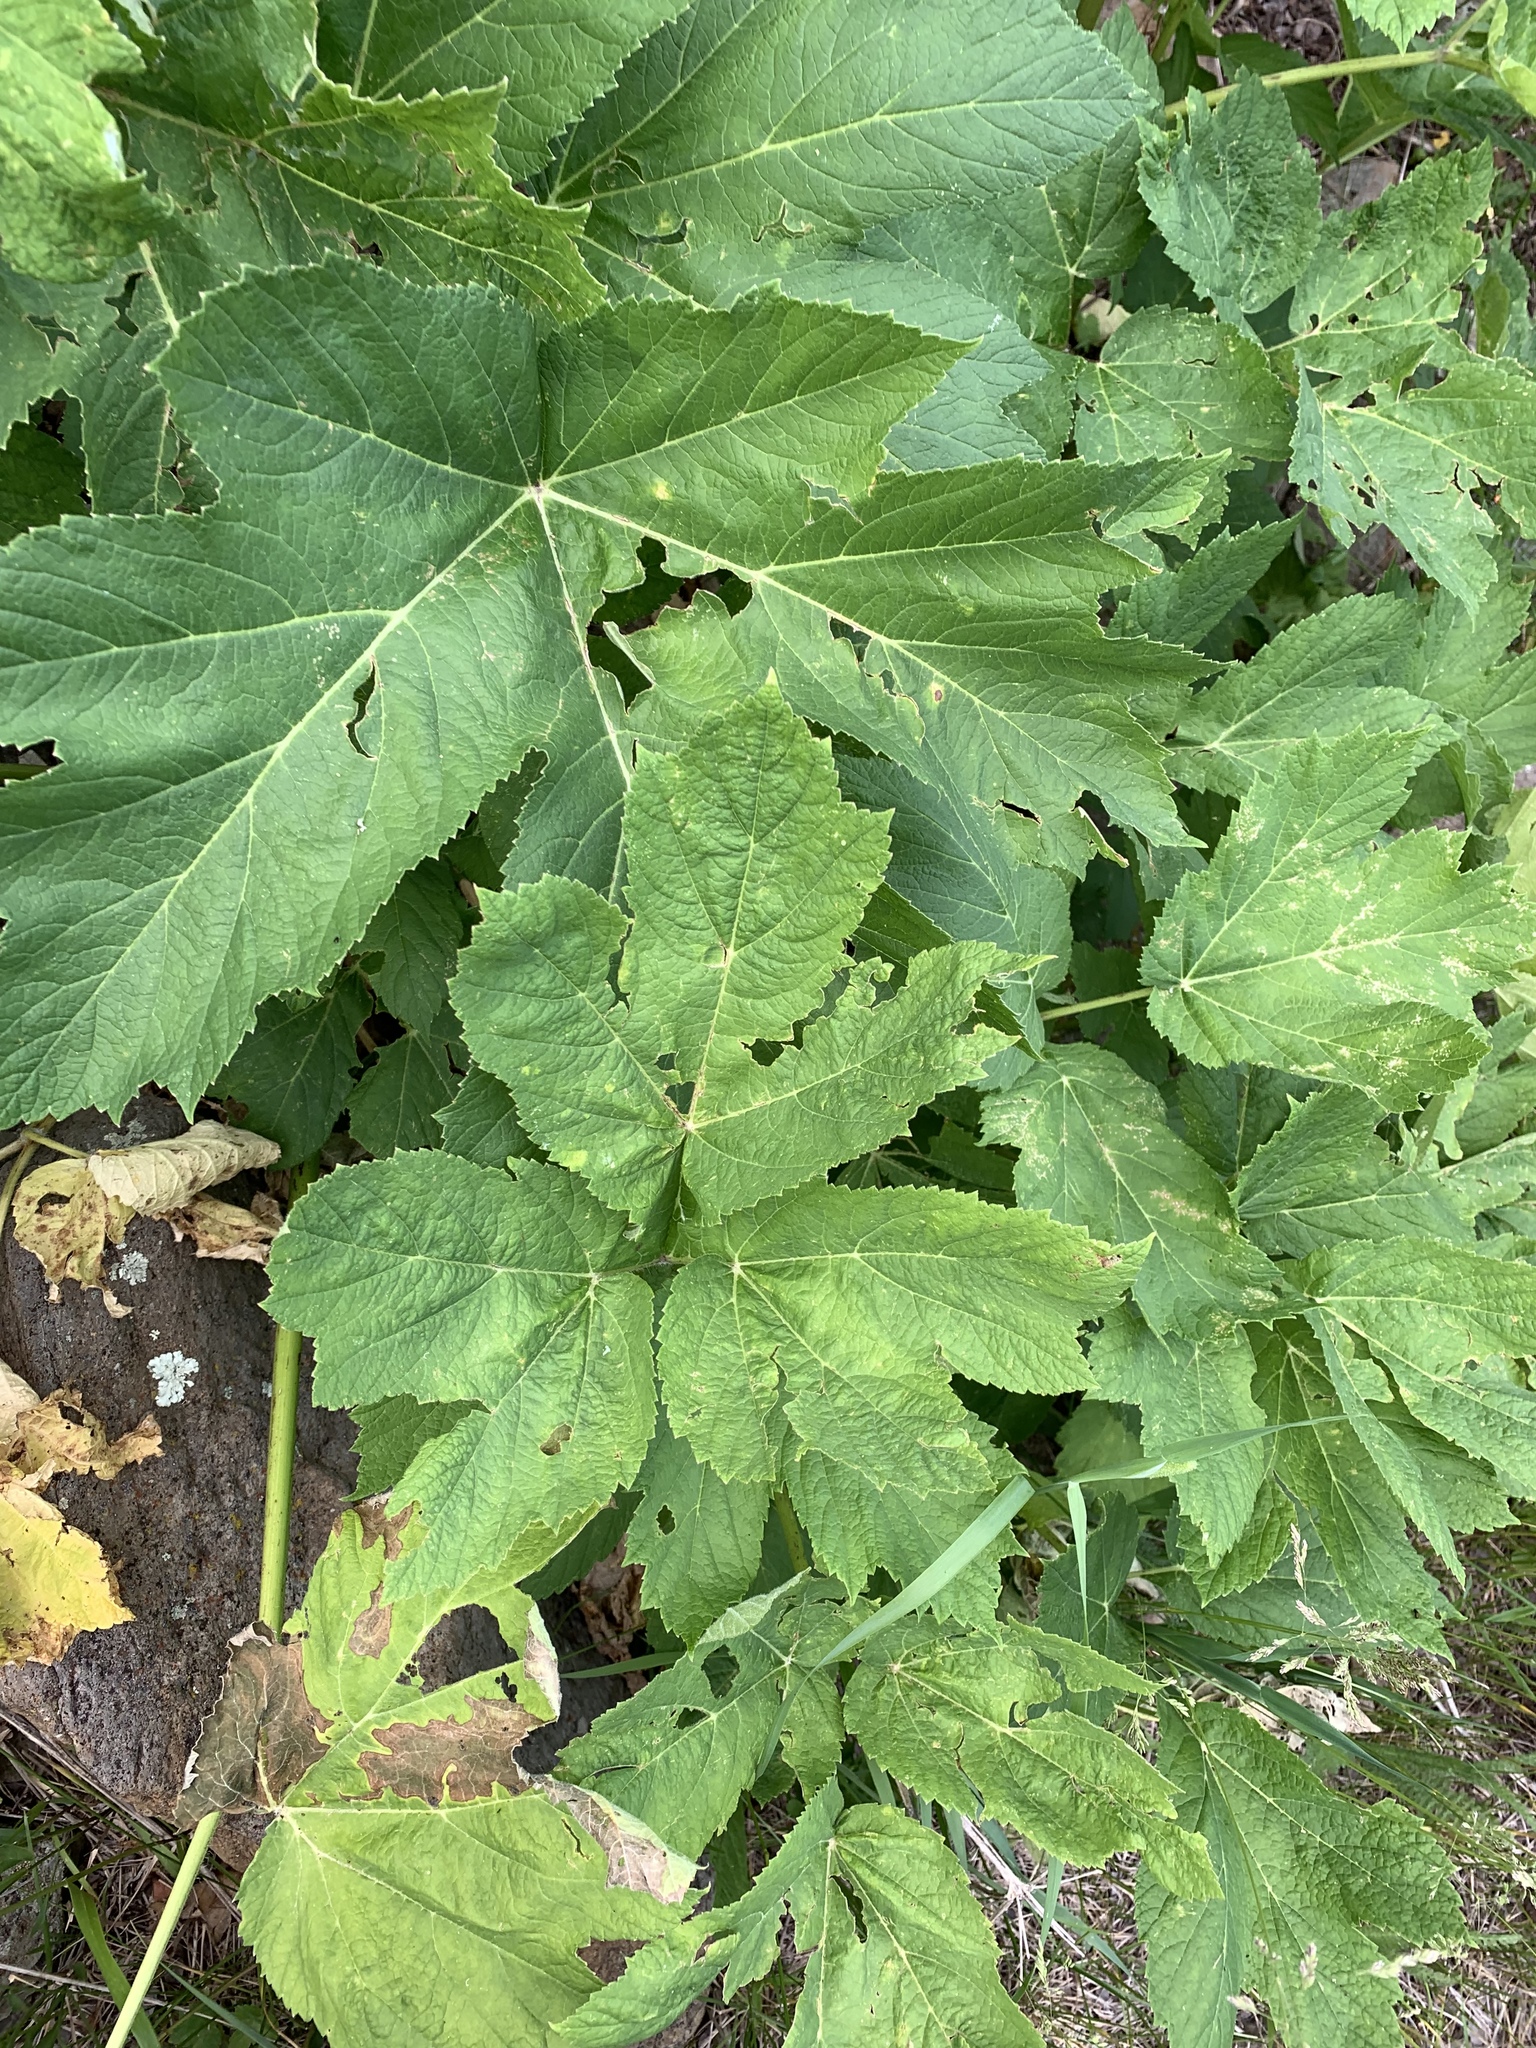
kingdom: Plantae
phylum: Tracheophyta
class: Magnoliopsida
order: Apiales
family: Apiaceae
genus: Heracleum
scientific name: Heracleum maximum
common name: American cow parsnip
